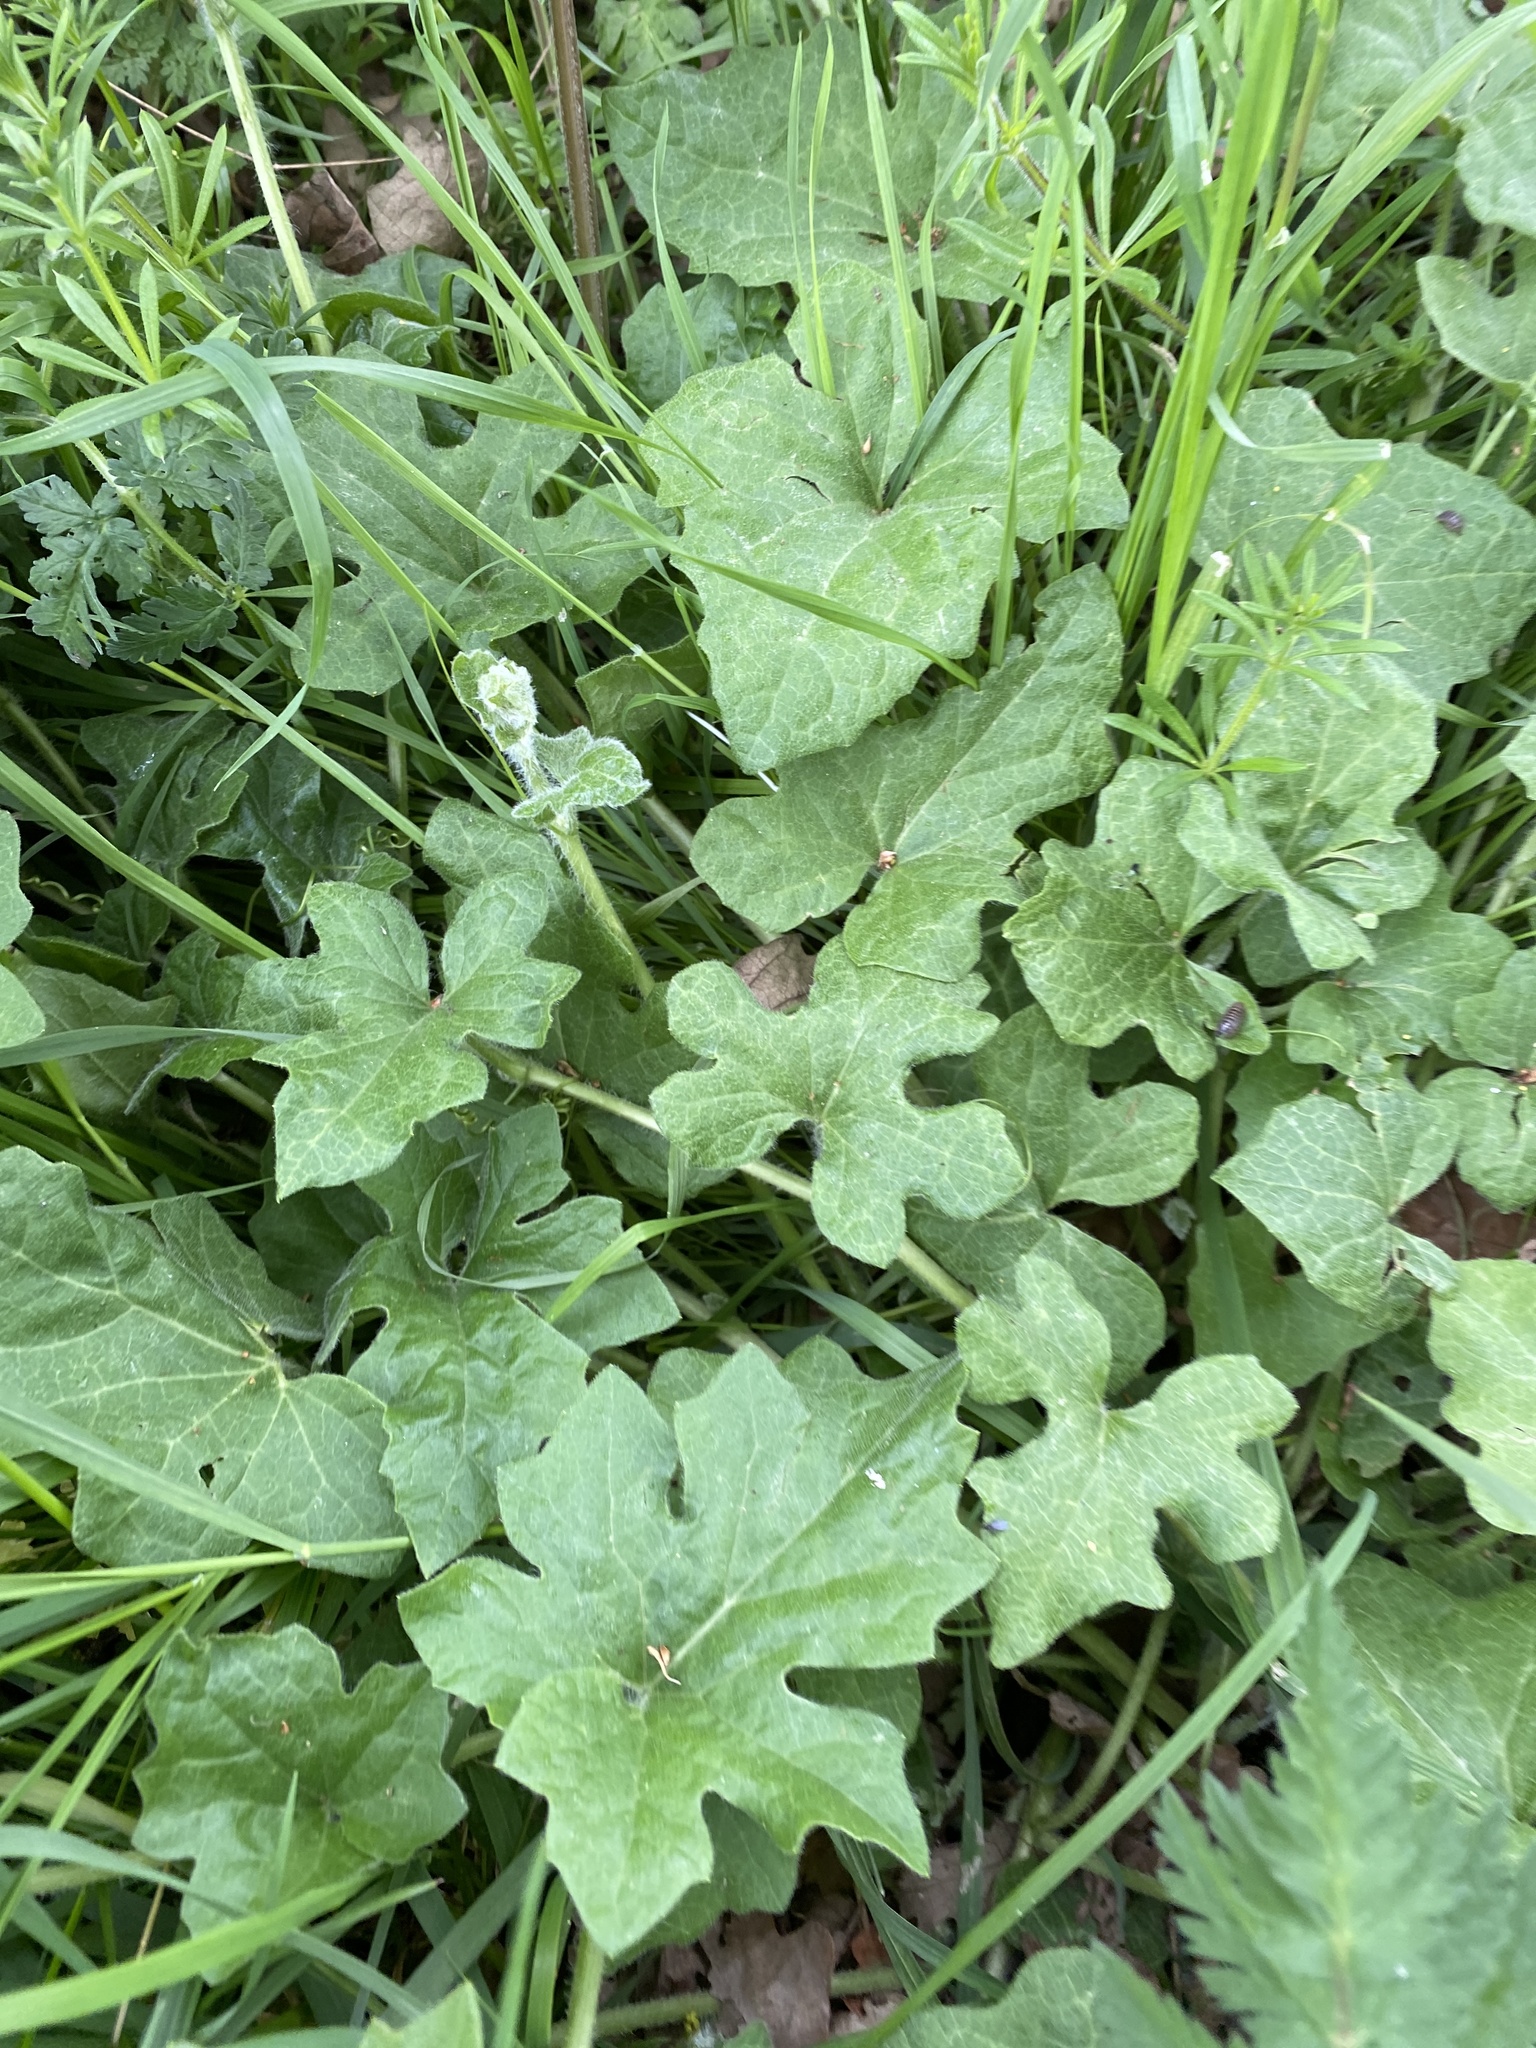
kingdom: Plantae
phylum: Tracheophyta
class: Magnoliopsida
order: Cucurbitales
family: Cucurbitaceae
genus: Bryonia
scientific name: Bryonia cretica
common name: Cretan bryony
